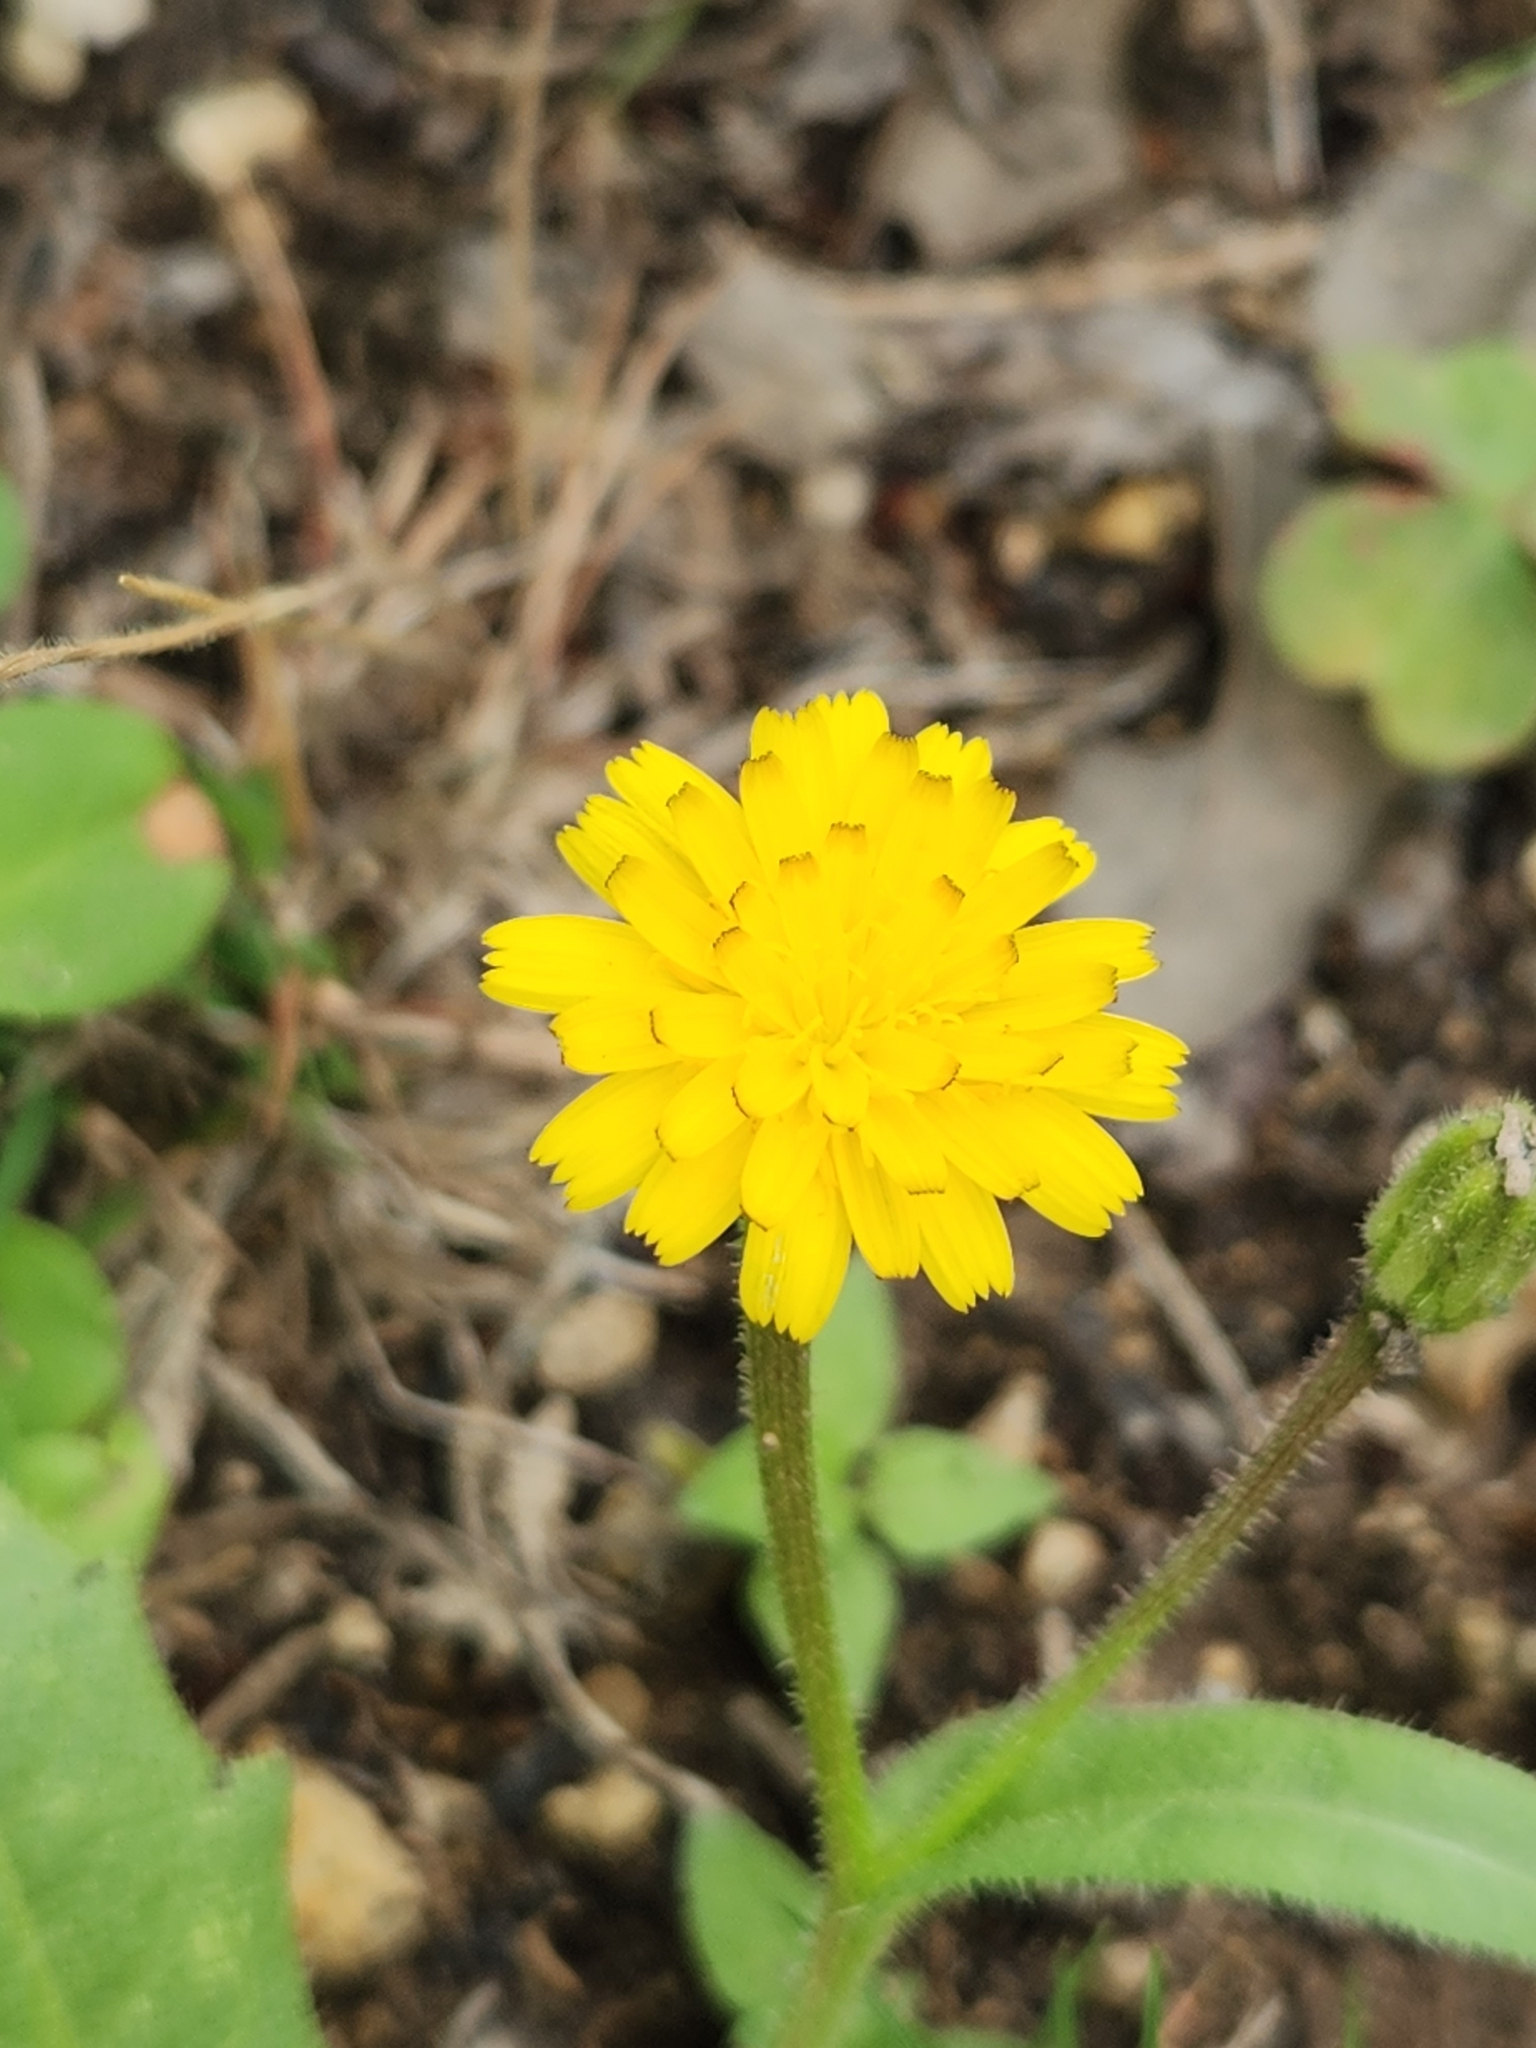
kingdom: Plantae
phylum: Tracheophyta
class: Magnoliopsida
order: Asterales
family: Asteraceae
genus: Hedypnois
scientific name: Hedypnois rhagadioloides
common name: Cretan weed
